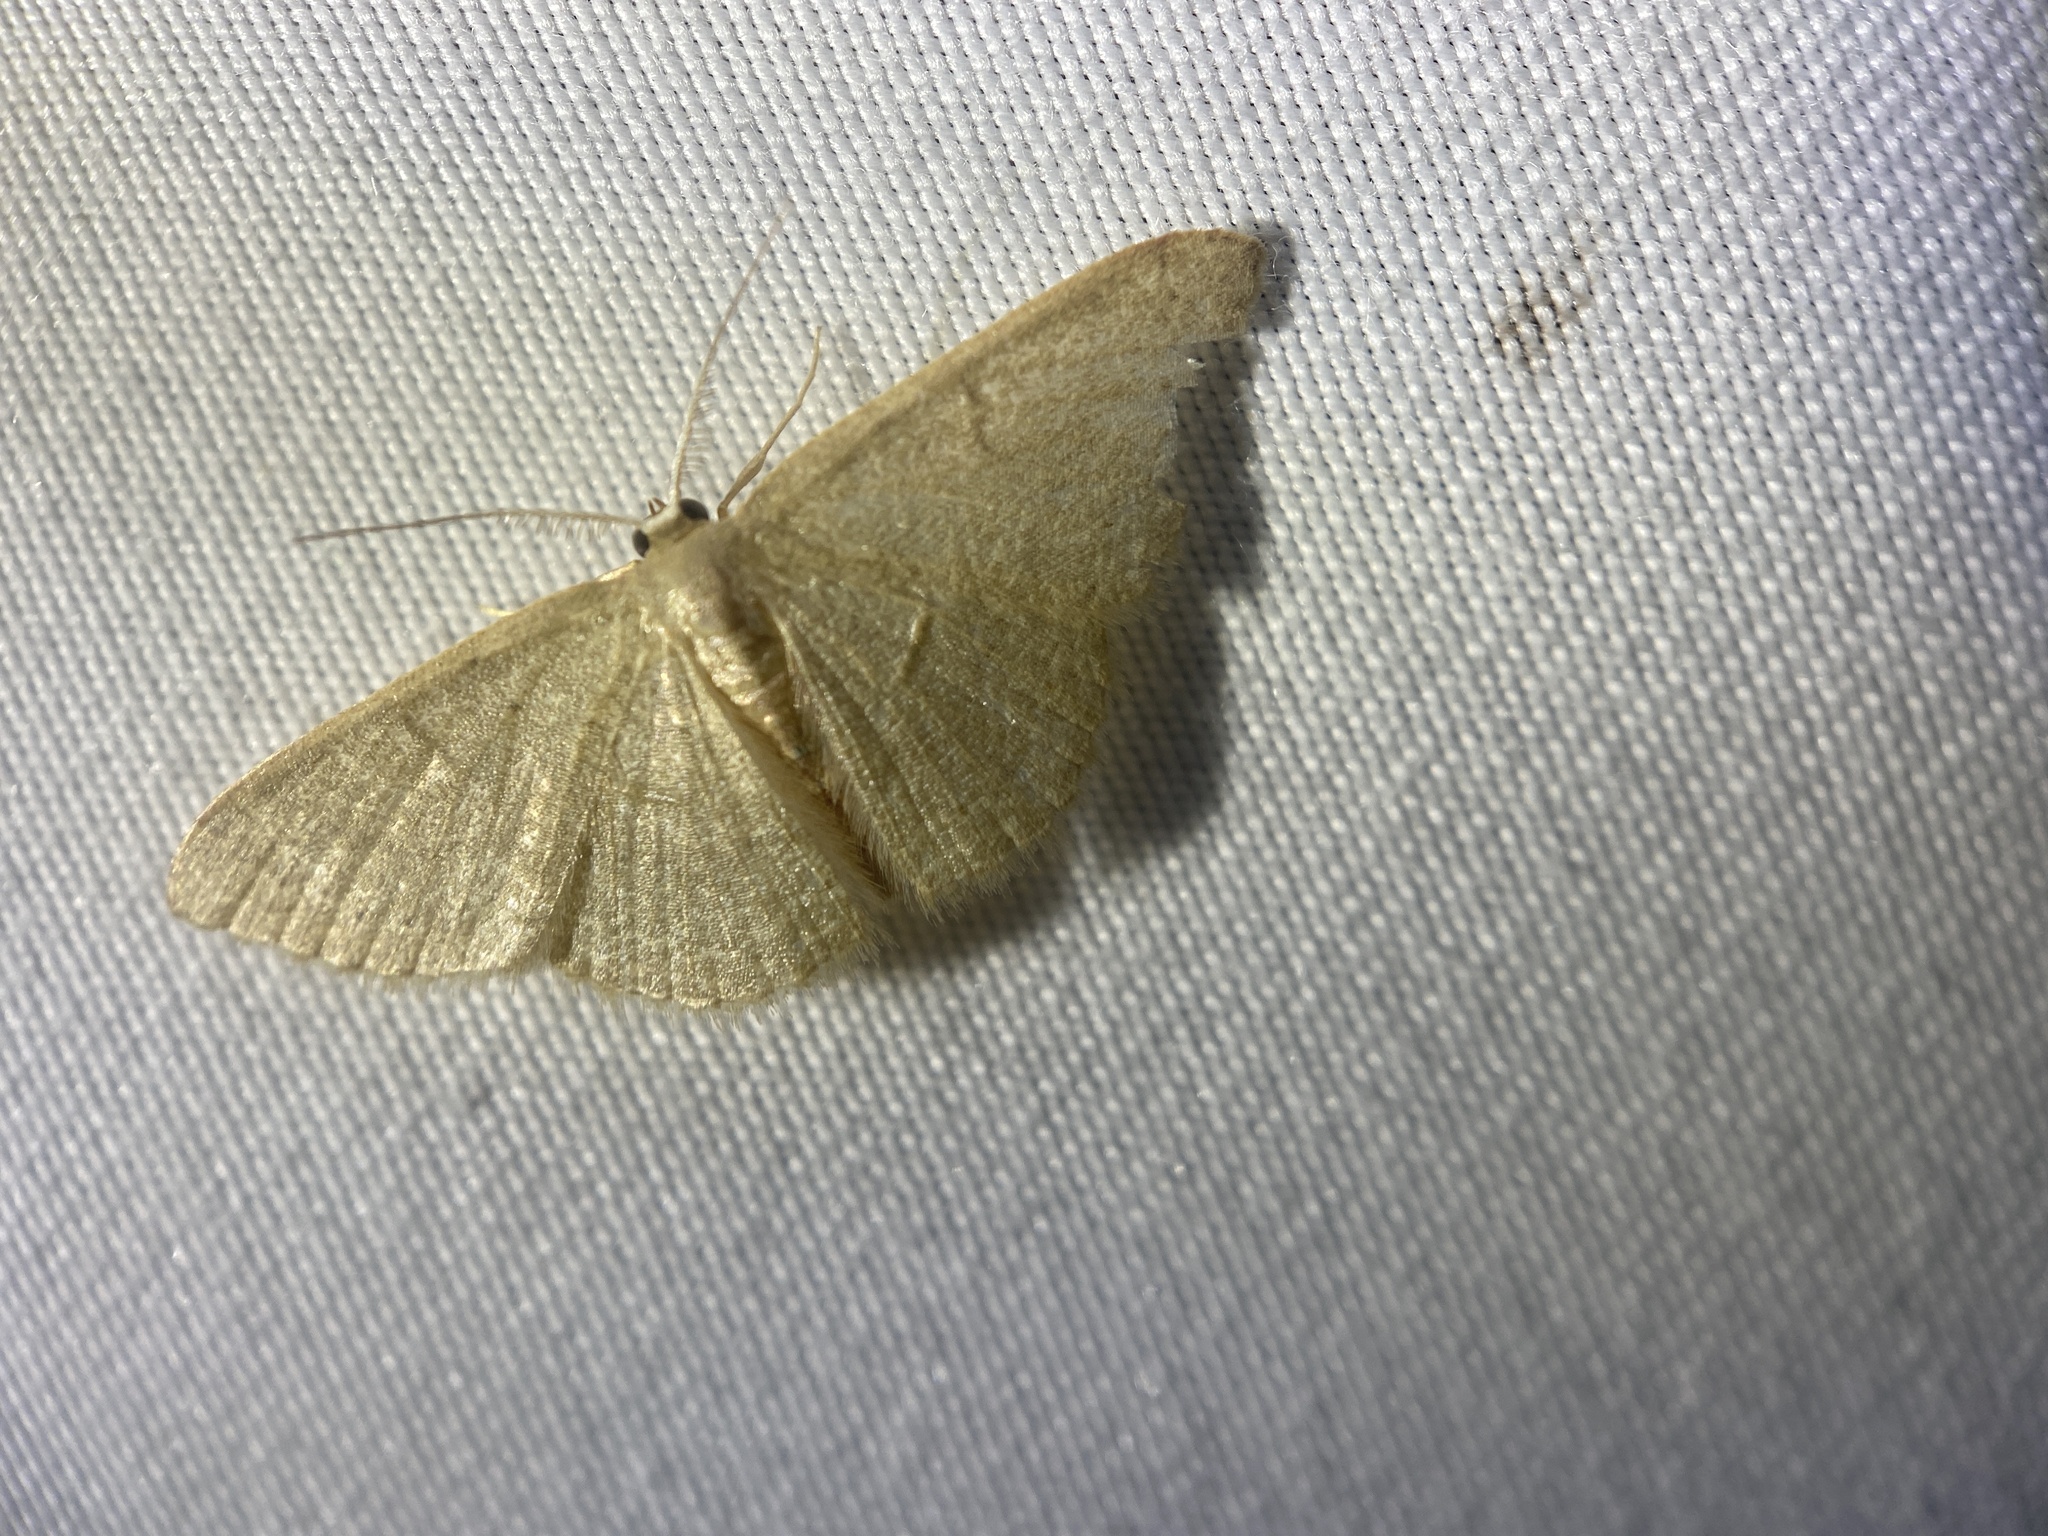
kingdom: Animalia
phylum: Arthropoda
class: Insecta
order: Lepidoptera
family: Geometridae
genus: Pleuroprucha
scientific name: Pleuroprucha insulsaria
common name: Common tan wave
